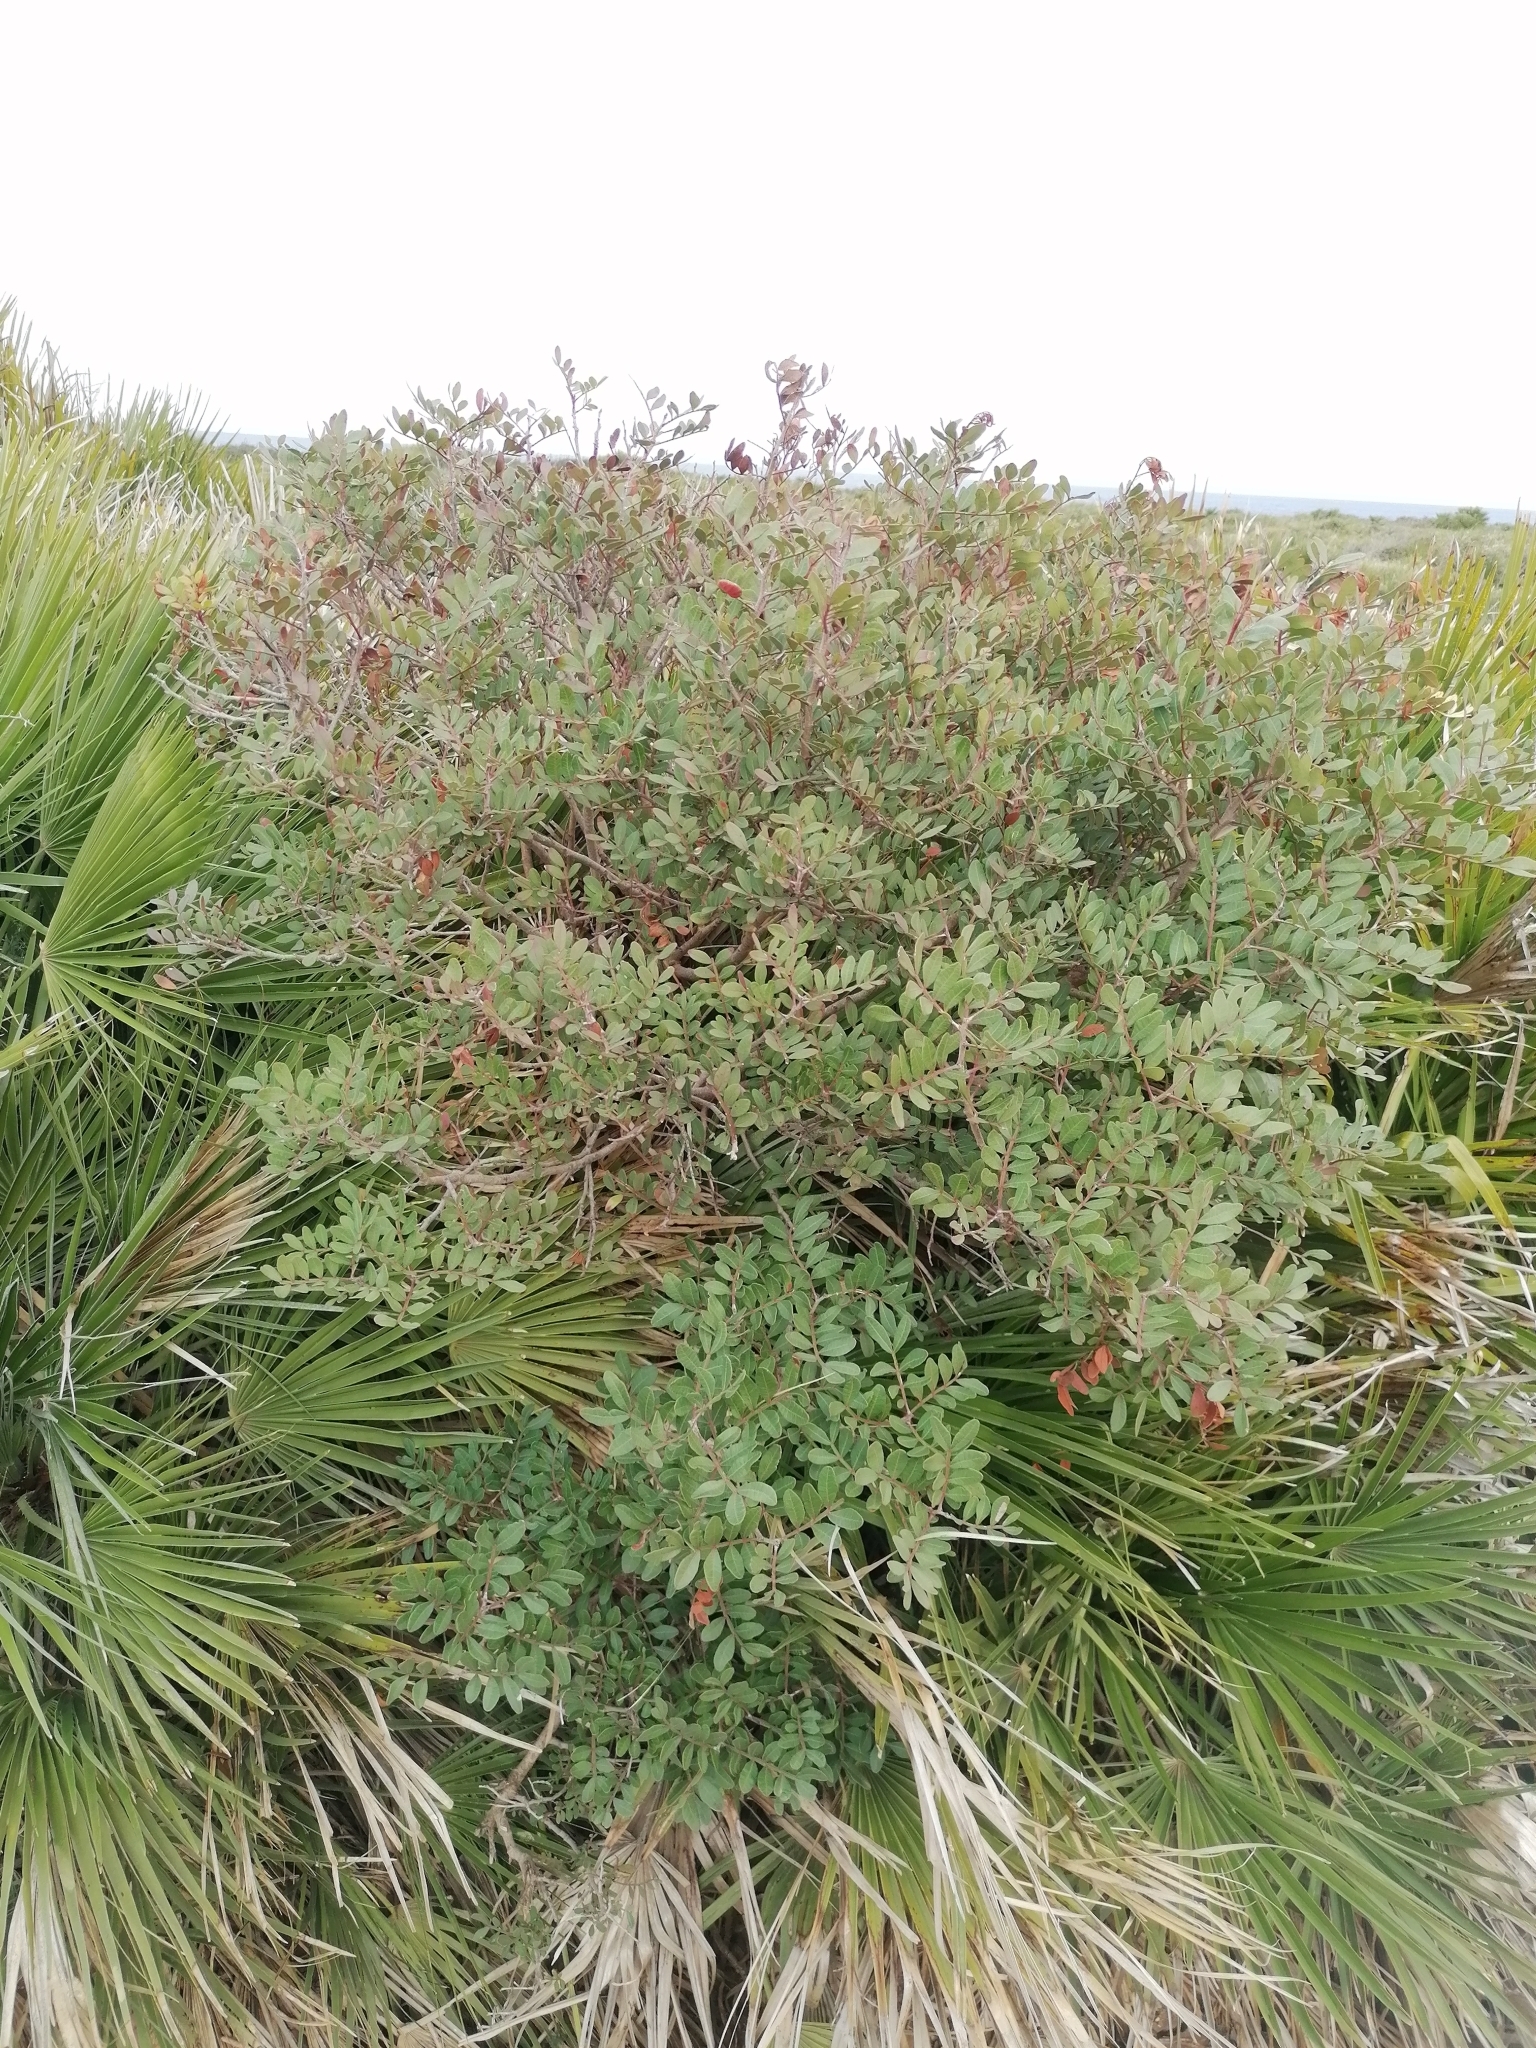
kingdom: Plantae
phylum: Tracheophyta
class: Magnoliopsida
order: Sapindales
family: Anacardiaceae
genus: Pistacia
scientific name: Pistacia lentiscus
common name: Lentisk
